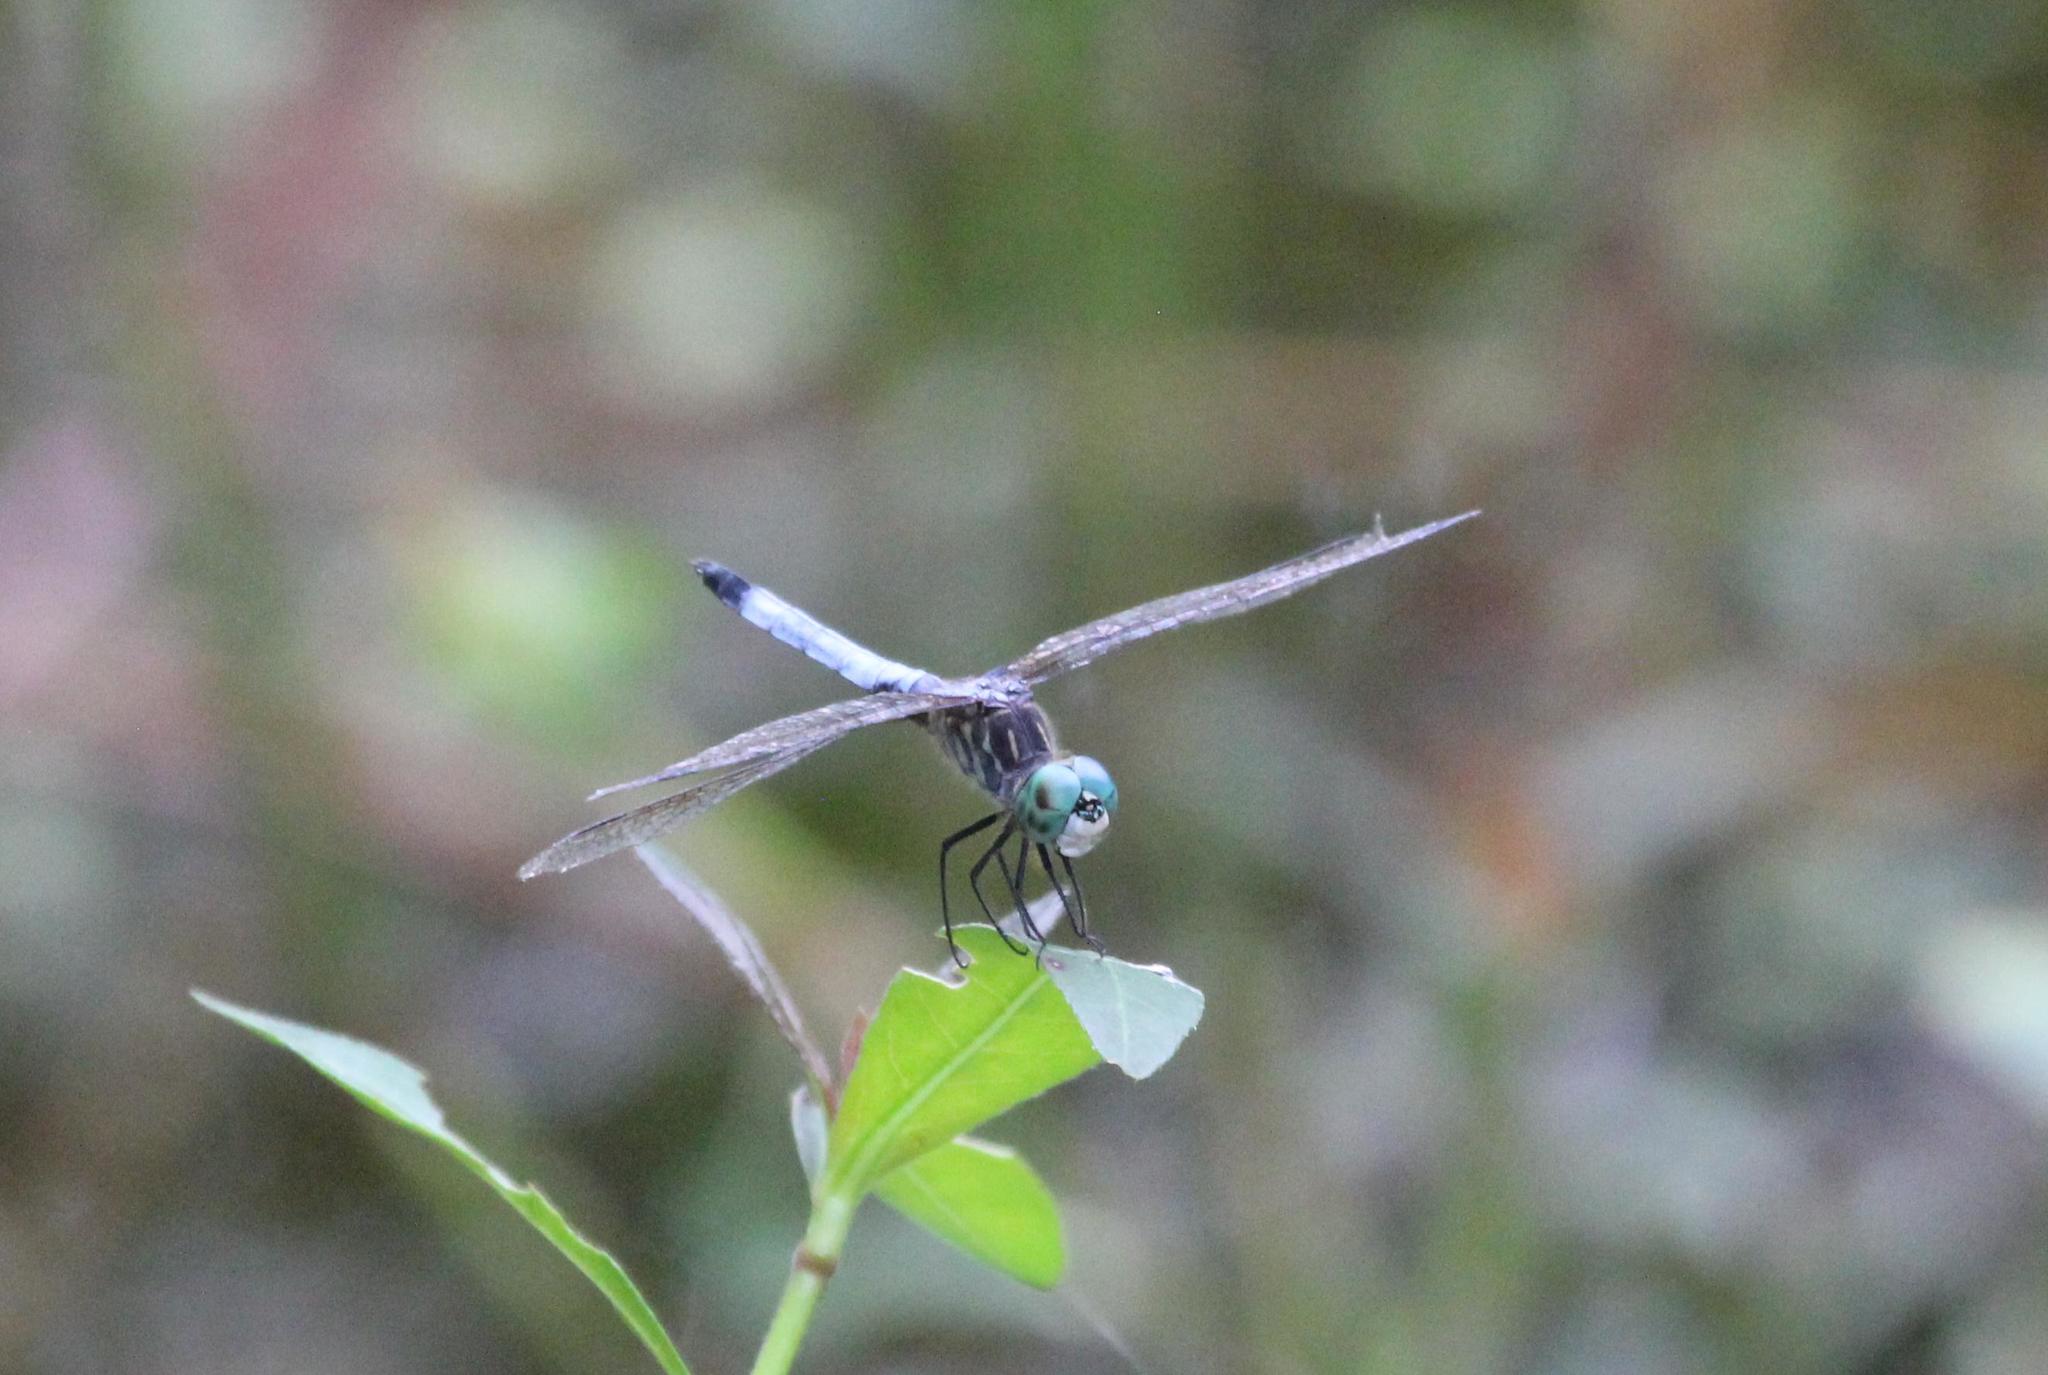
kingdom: Animalia
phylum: Arthropoda
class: Insecta
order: Odonata
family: Libellulidae
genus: Pachydiplax
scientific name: Pachydiplax longipennis
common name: Blue dasher
